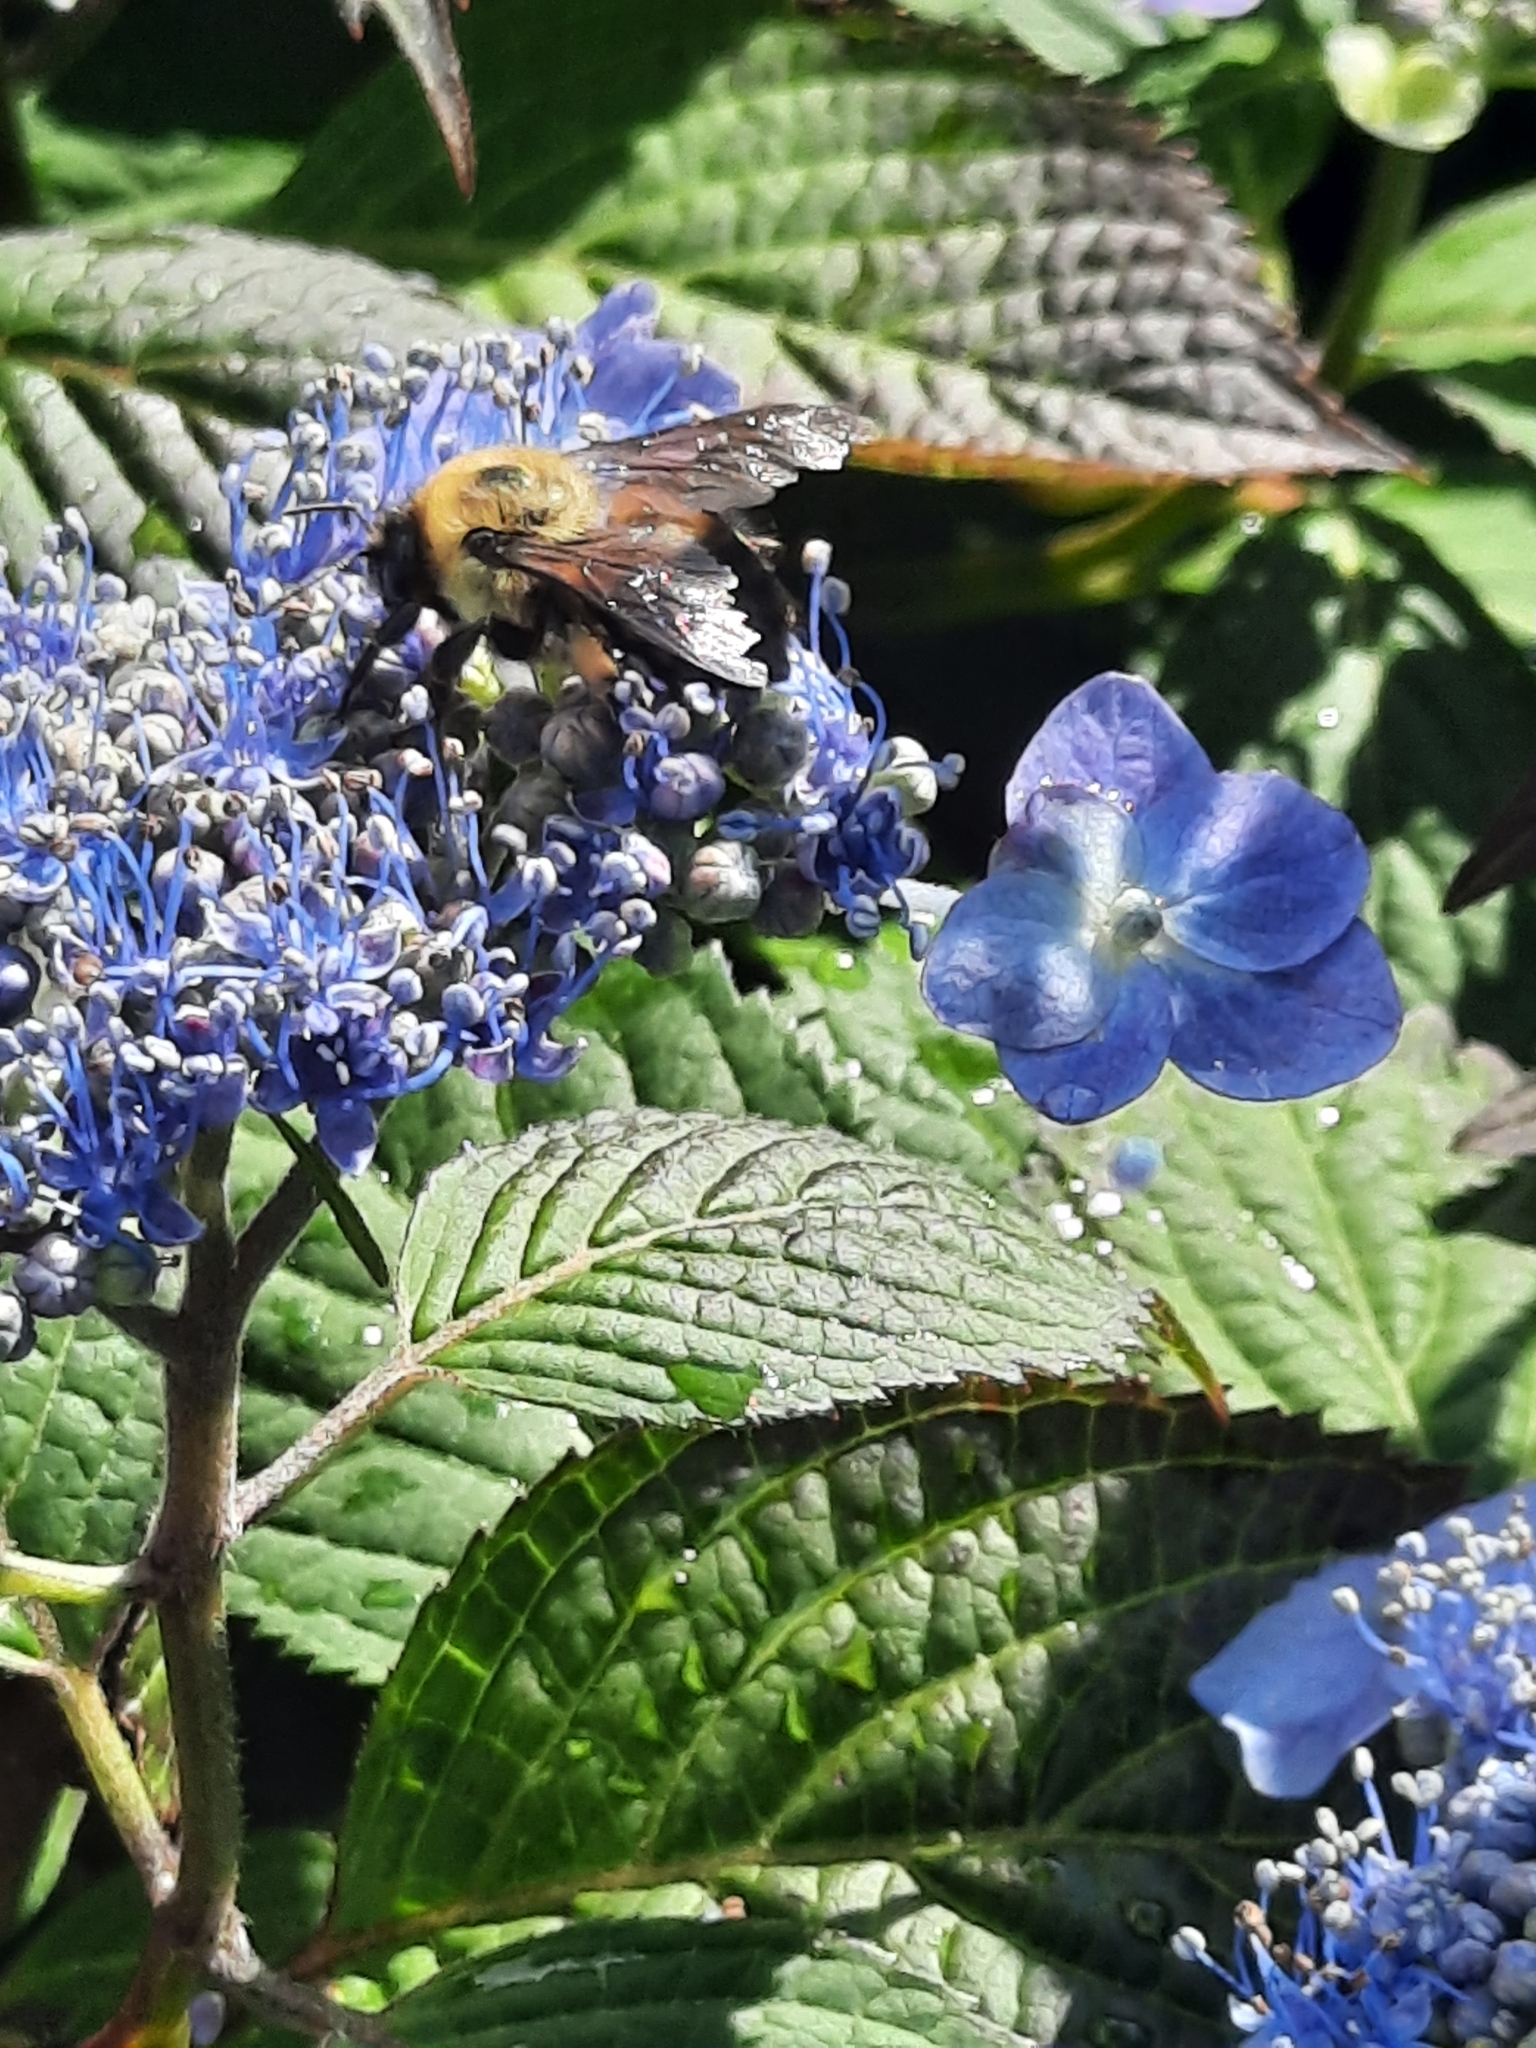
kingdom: Animalia
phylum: Arthropoda
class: Insecta
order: Hymenoptera
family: Apidae
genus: Bombus
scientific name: Bombus griseocollis
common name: Brown-belted bumble bee
